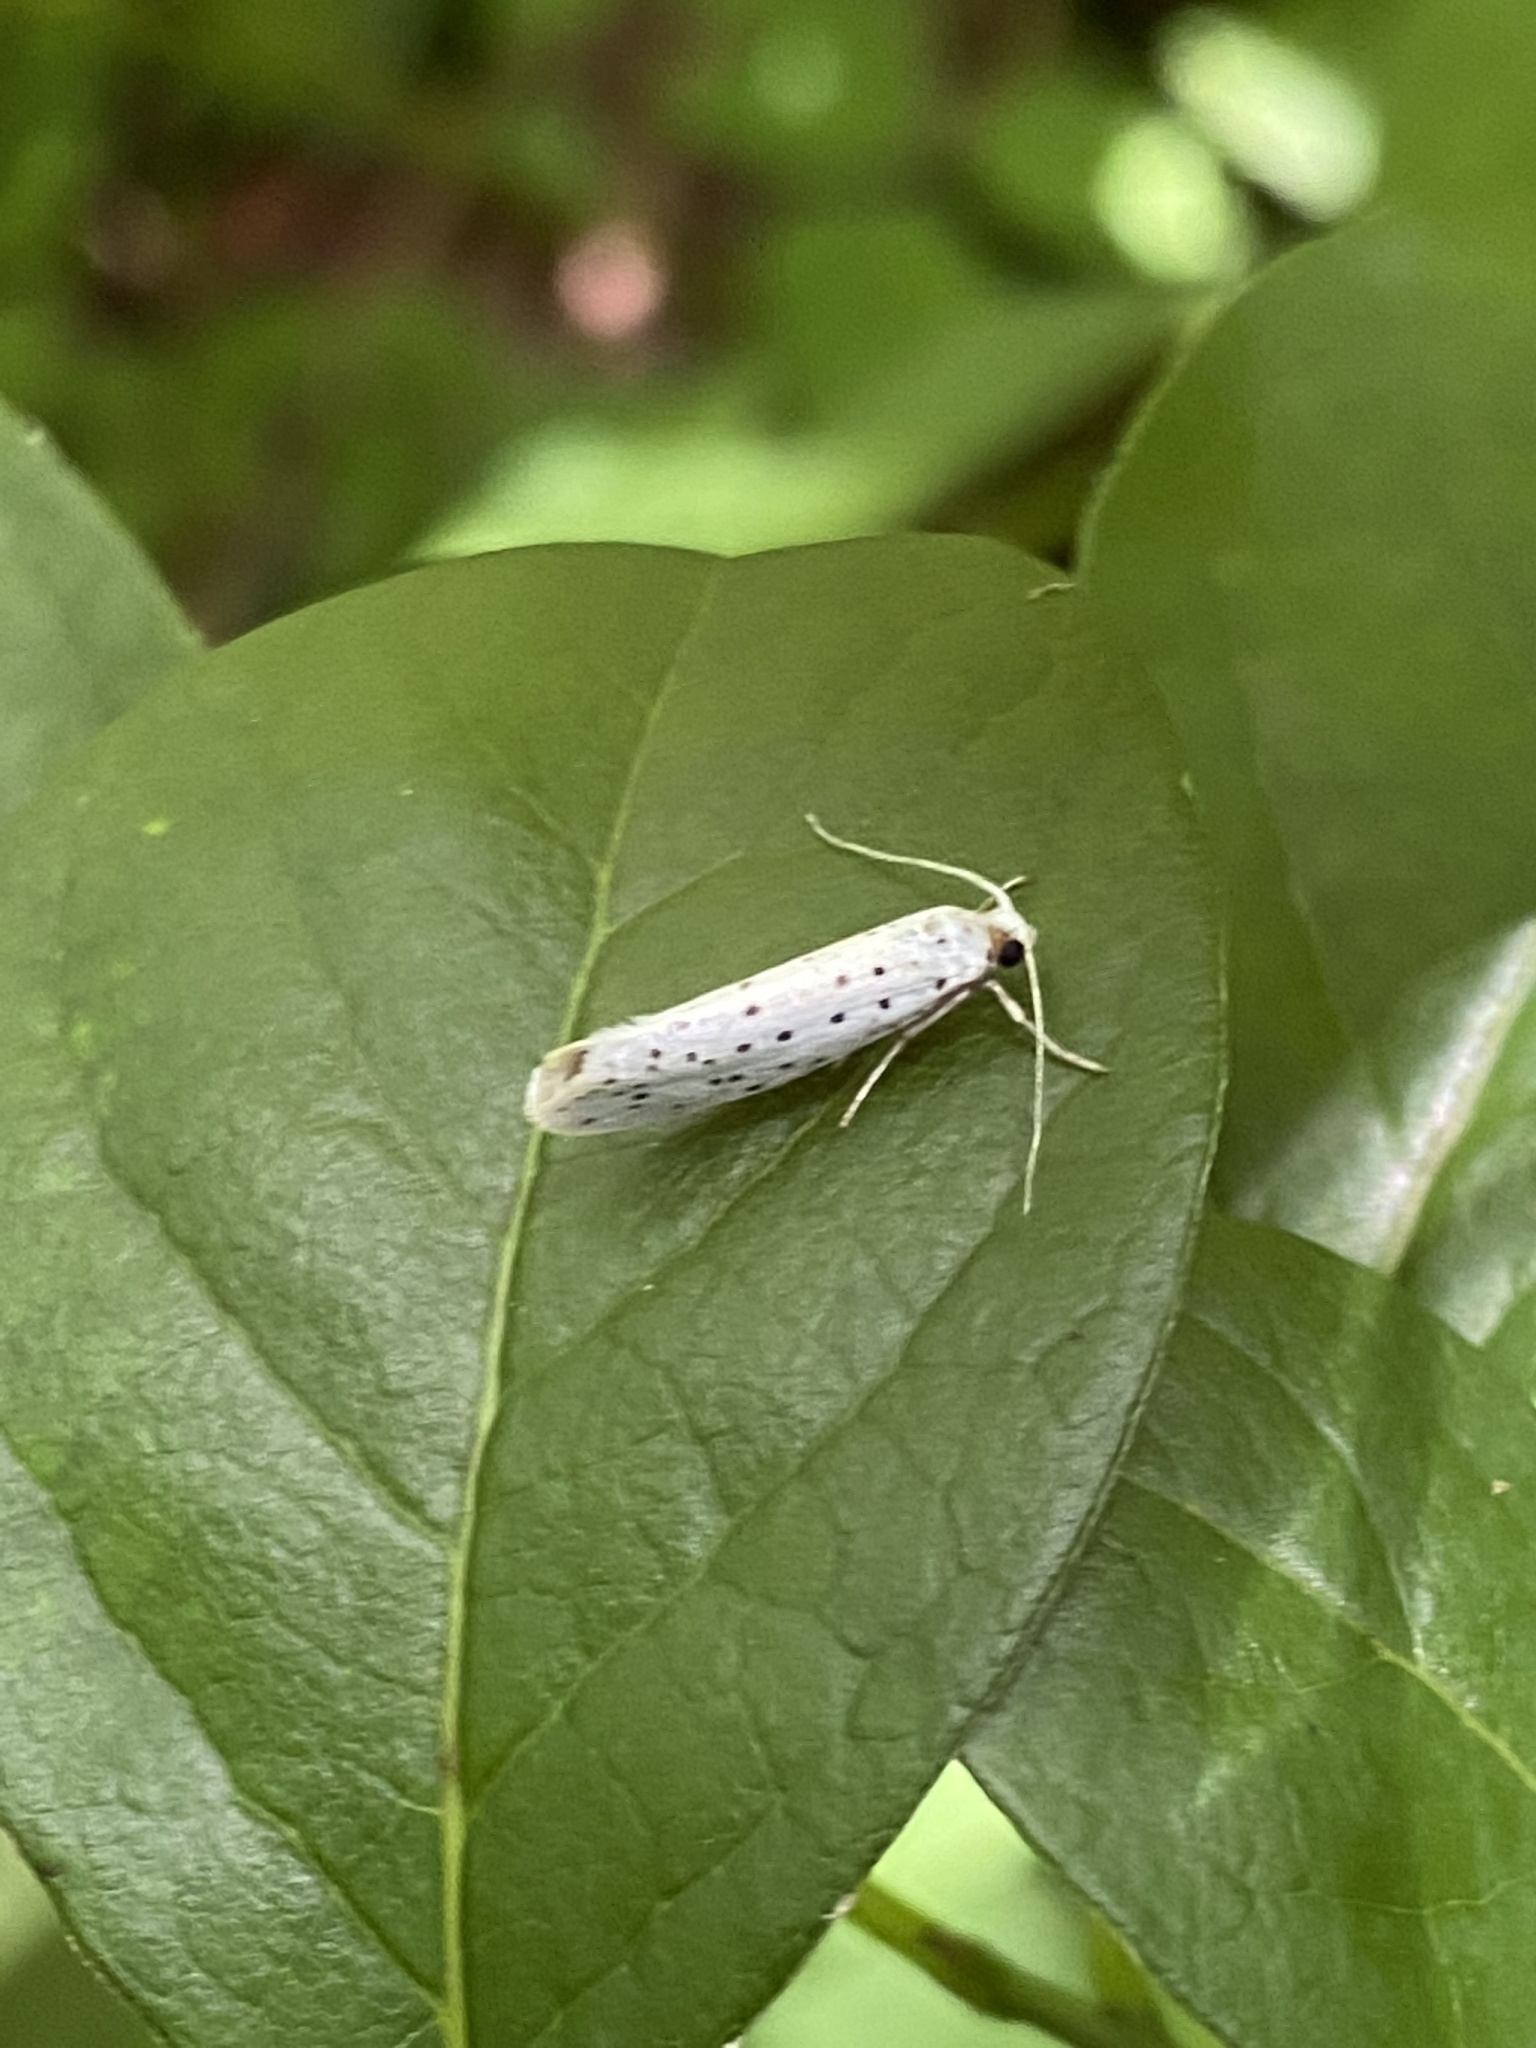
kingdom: Animalia
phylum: Arthropoda
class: Insecta
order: Lepidoptera
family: Yponomeutidae
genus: Yponomeuta
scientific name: Yponomeuta multipunctella
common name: American ermine moth
